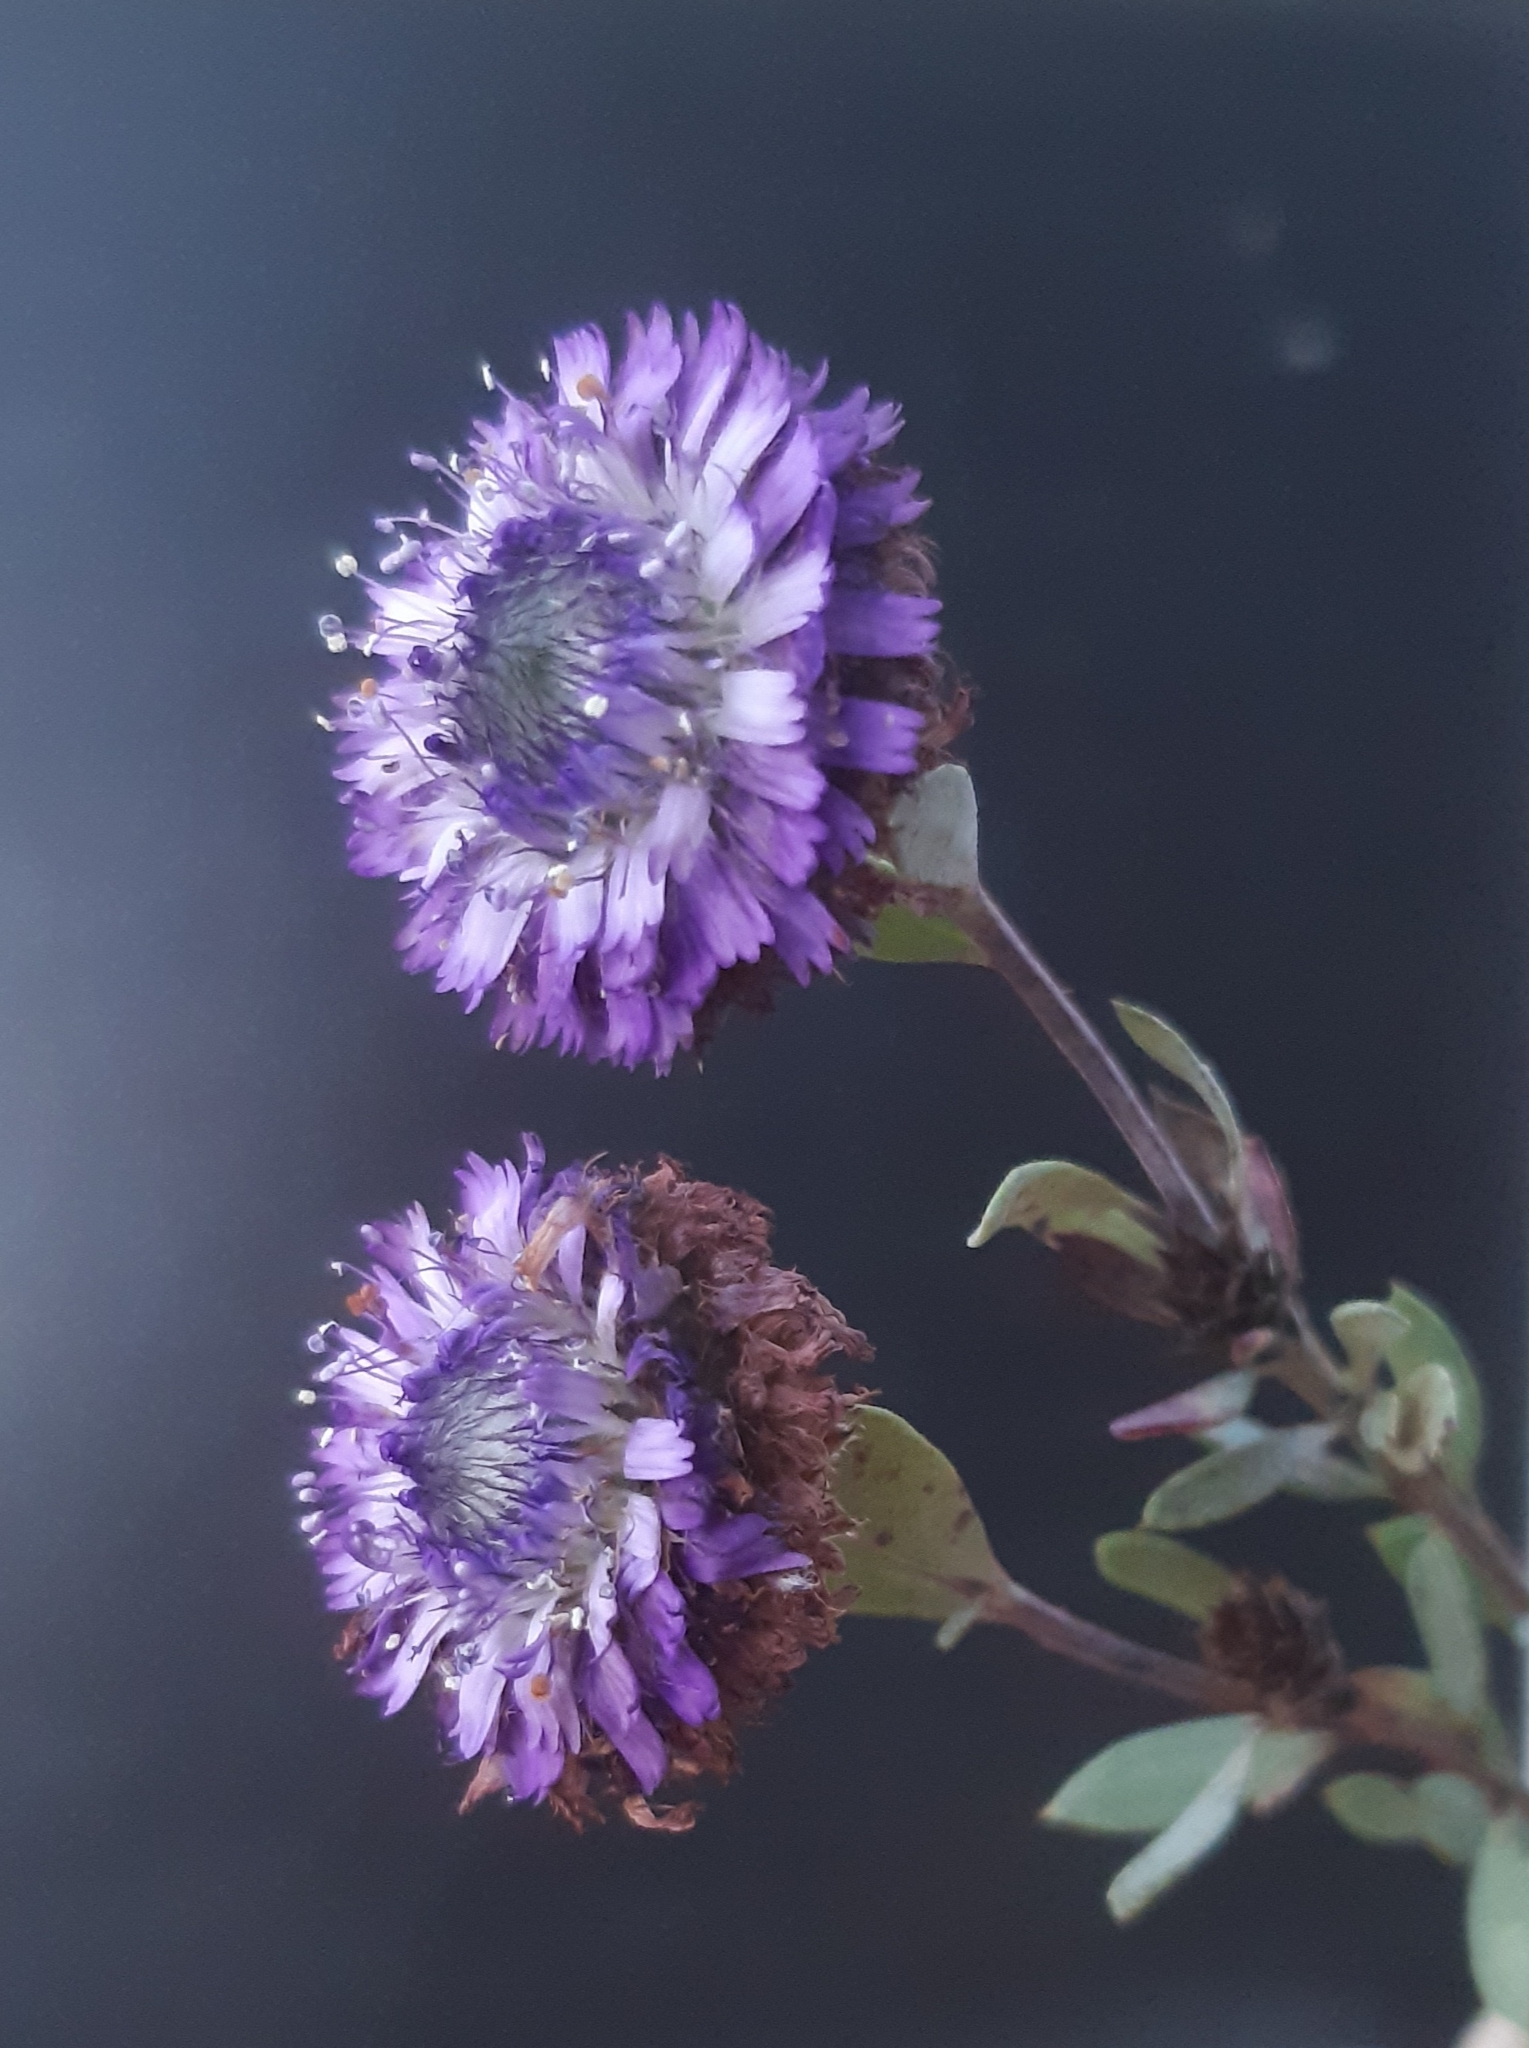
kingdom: Plantae
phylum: Tracheophyta
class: Magnoliopsida
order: Lamiales
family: Plantaginaceae
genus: Globularia
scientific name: Globularia alypum
